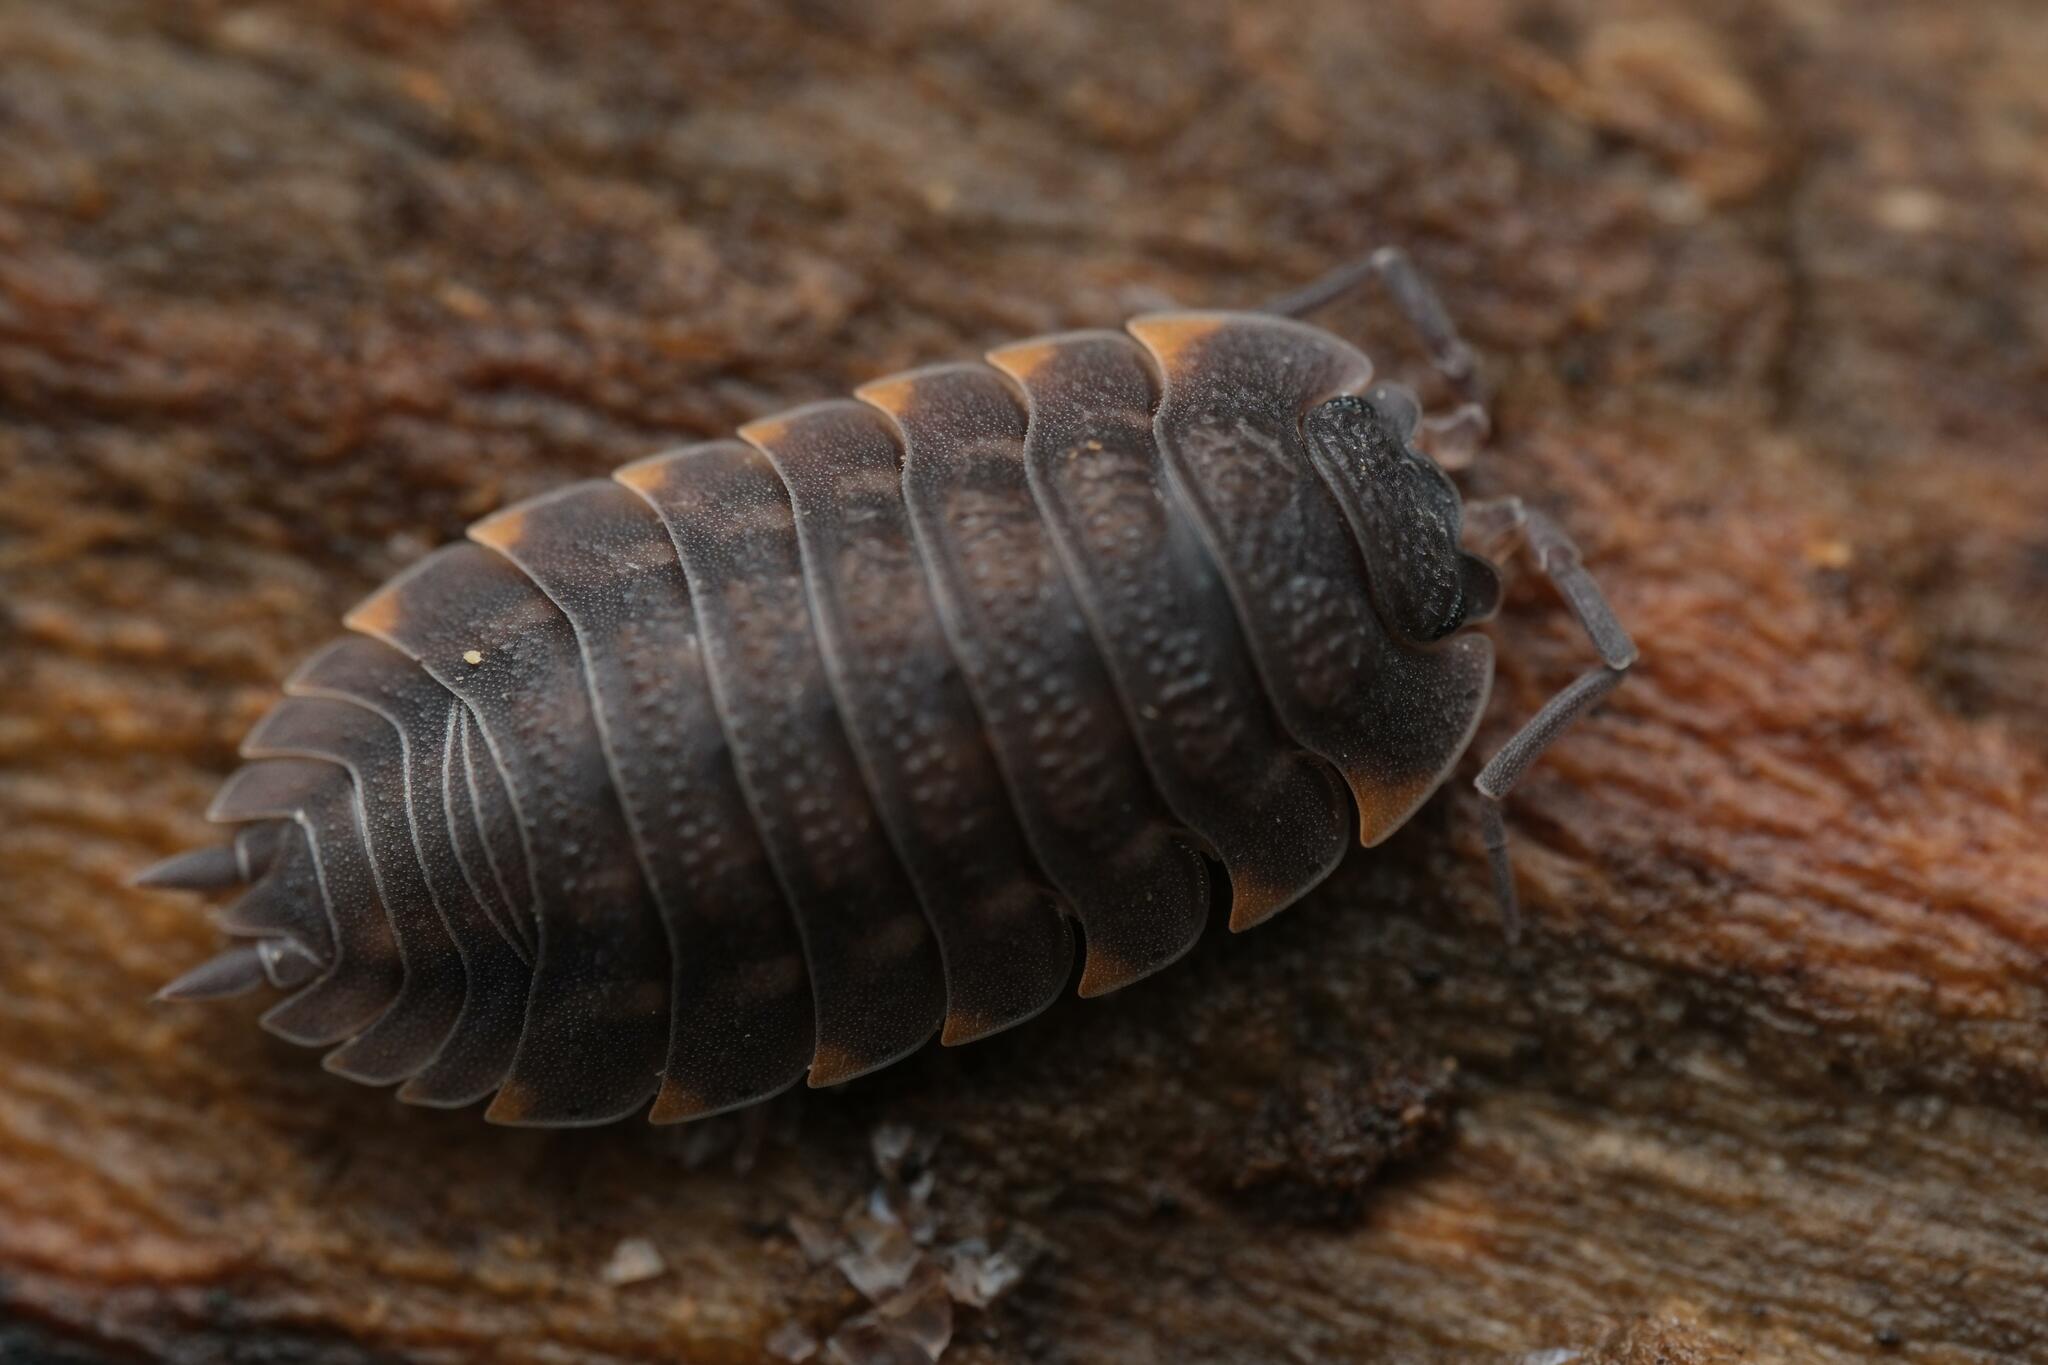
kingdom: Animalia
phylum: Arthropoda
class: Malacostraca
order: Isopoda
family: Trachelipodidae
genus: Trachelipus
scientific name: Trachelipus ratzeburgii
